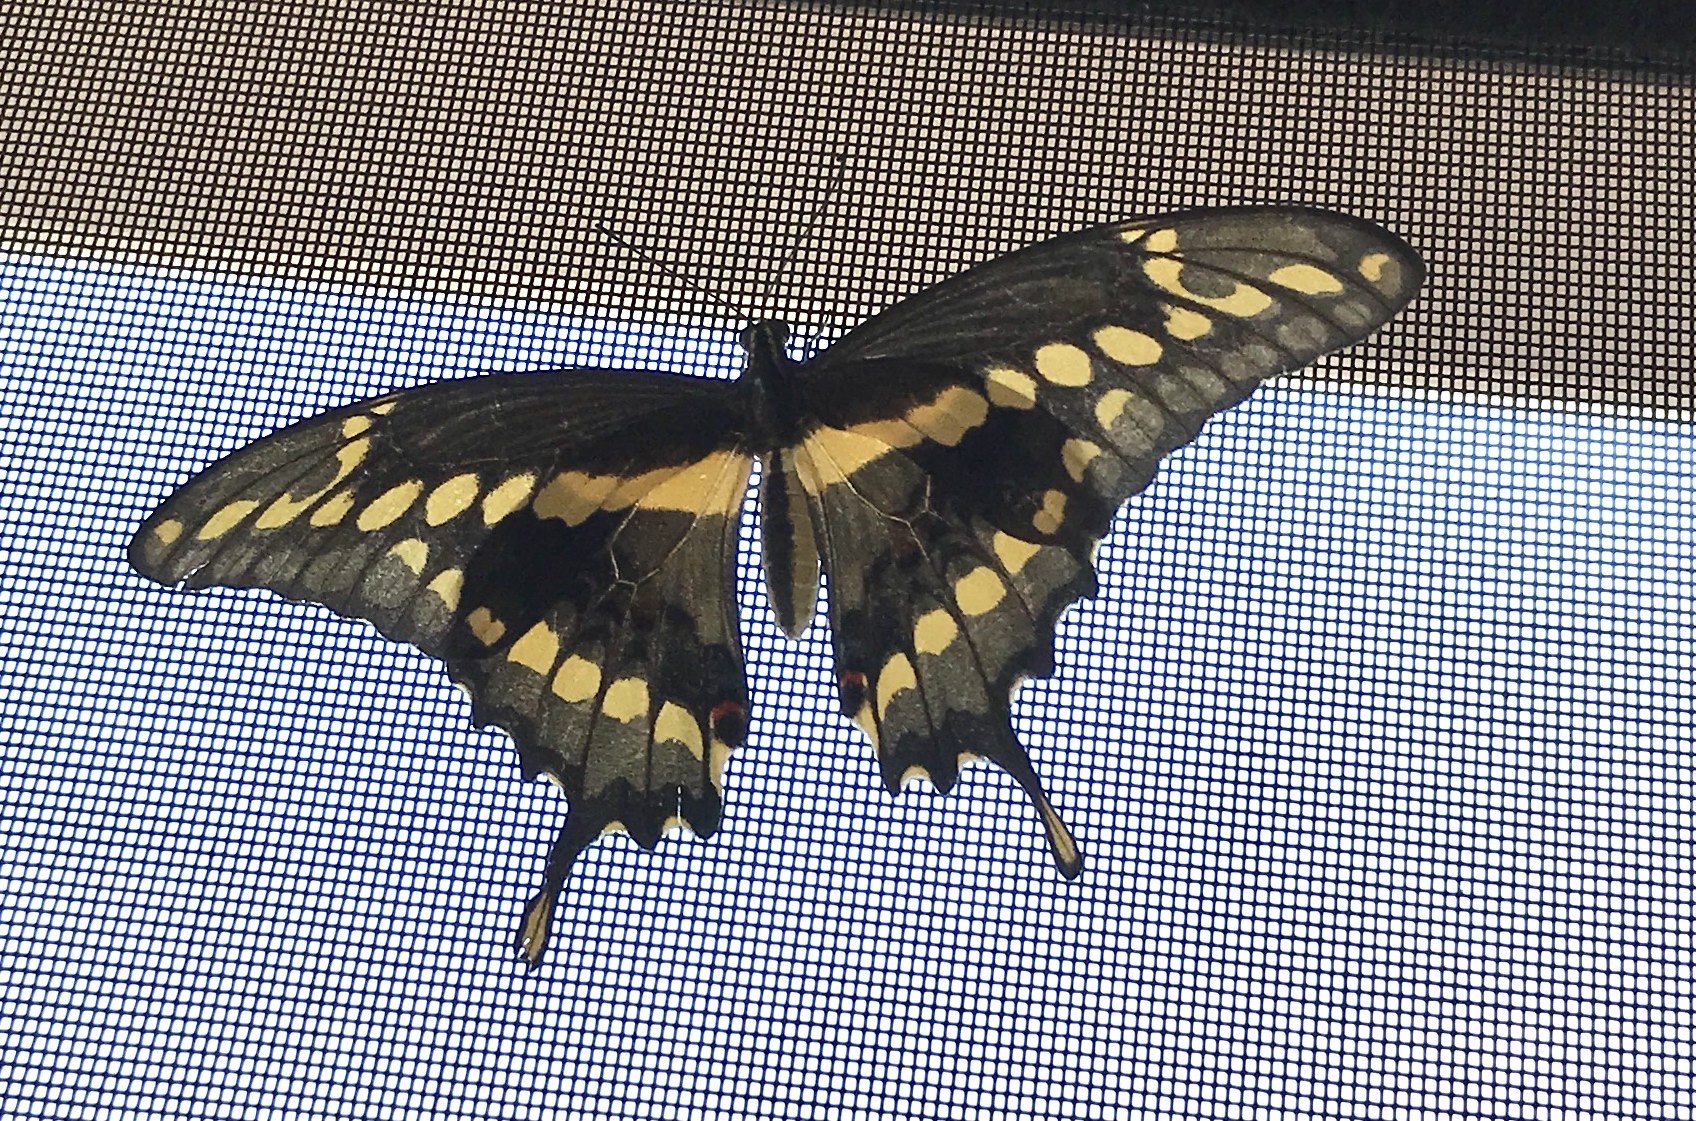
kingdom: Animalia
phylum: Arthropoda
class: Insecta
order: Lepidoptera
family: Papilionidae
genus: Papilio
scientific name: Papilio rumiko
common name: Western giant swallowtail
